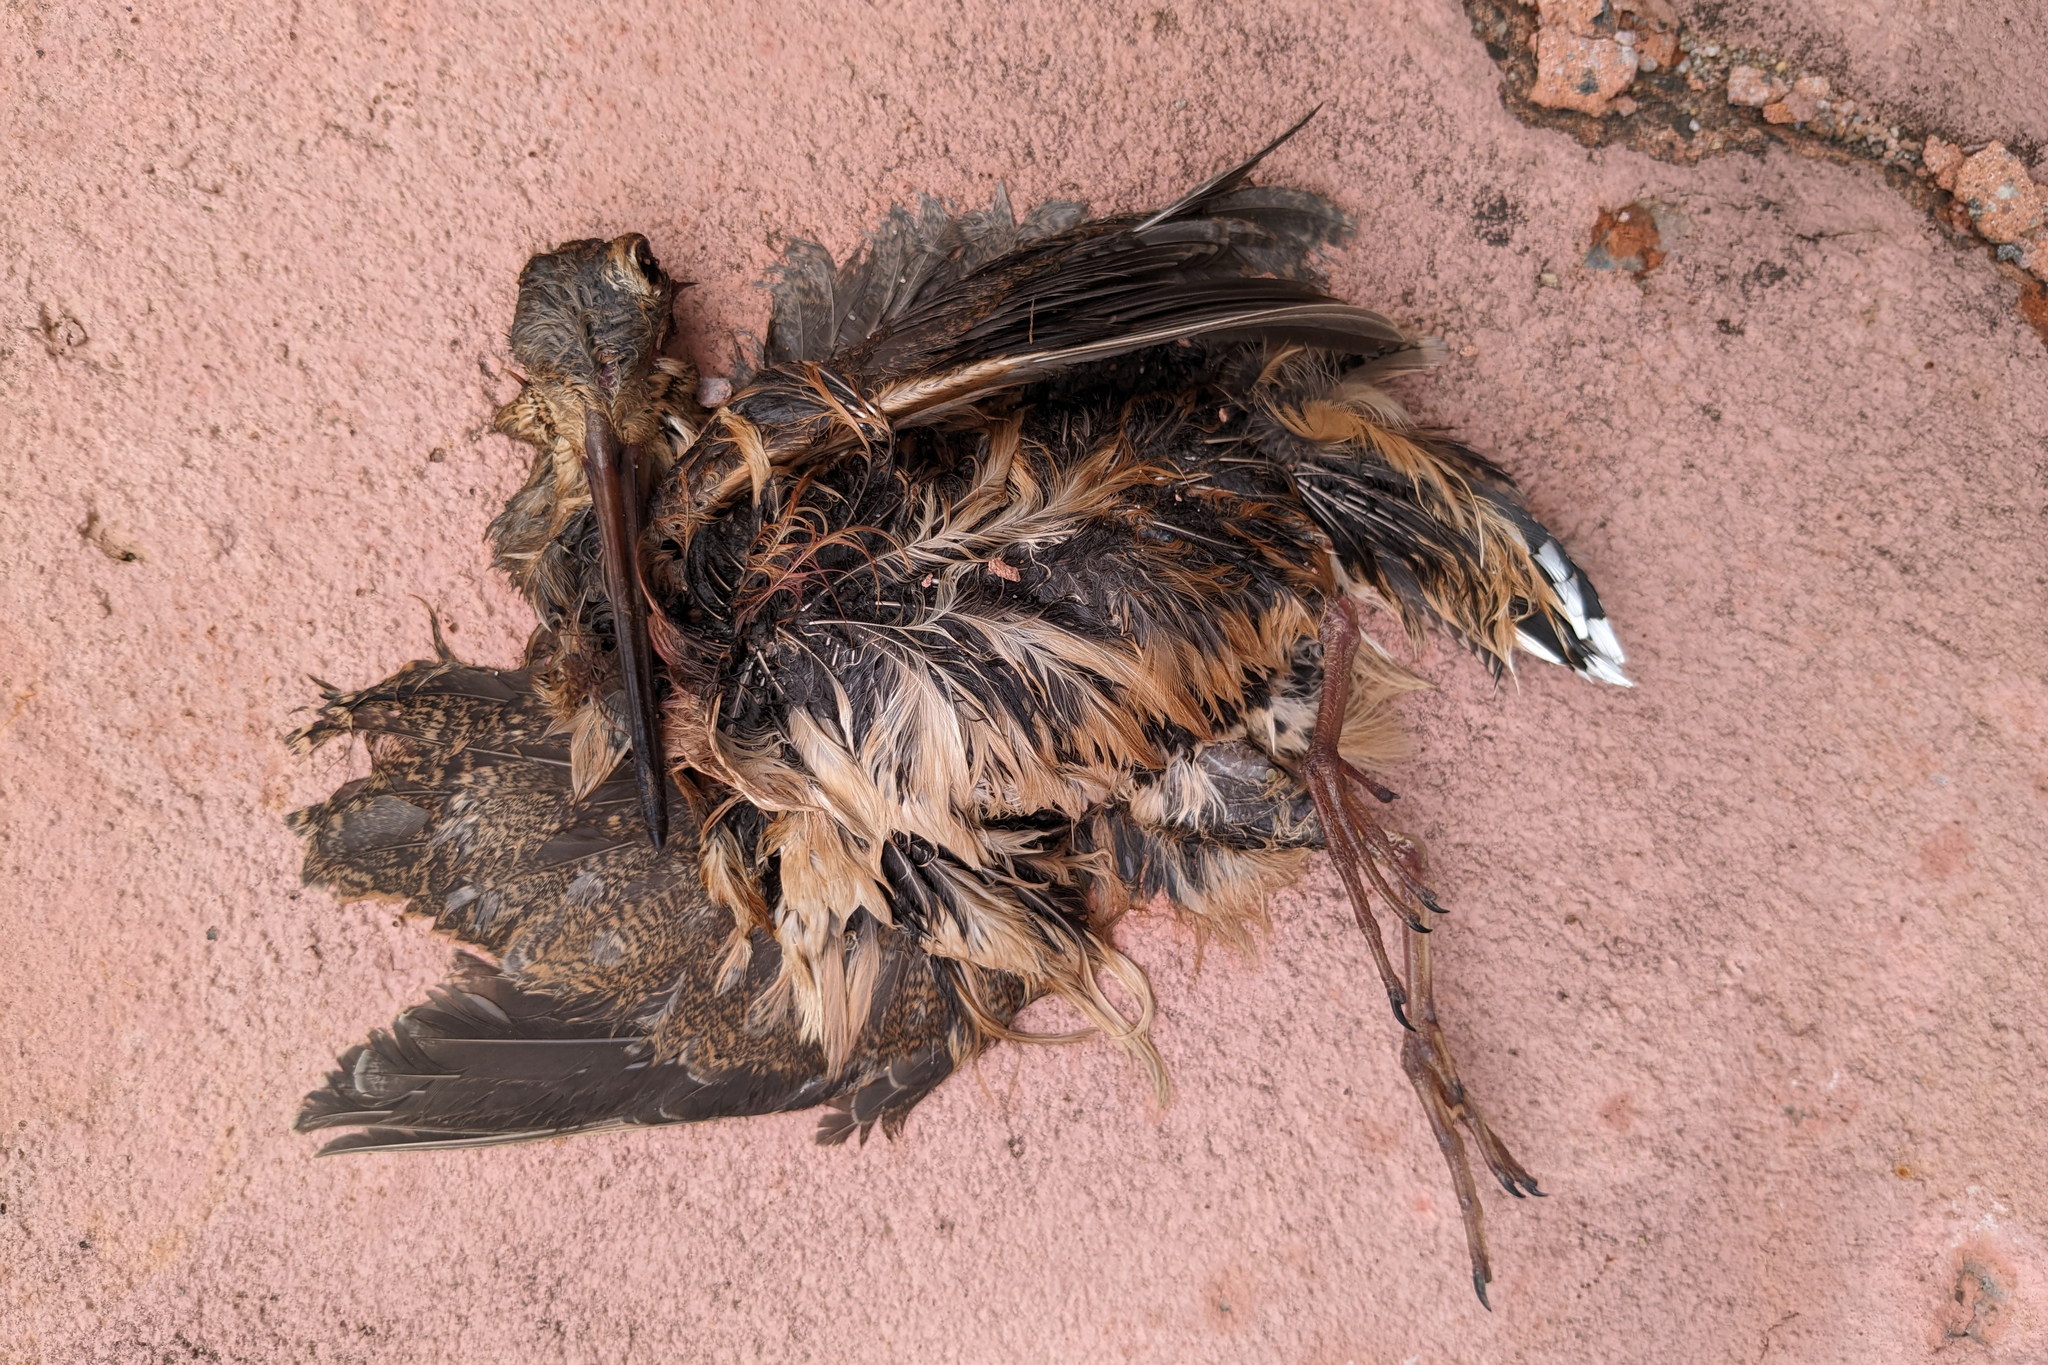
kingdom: Animalia
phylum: Chordata
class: Aves
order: Charadriiformes
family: Scolopacidae
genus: Scolopax
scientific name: Scolopax minor
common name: American woodcock
